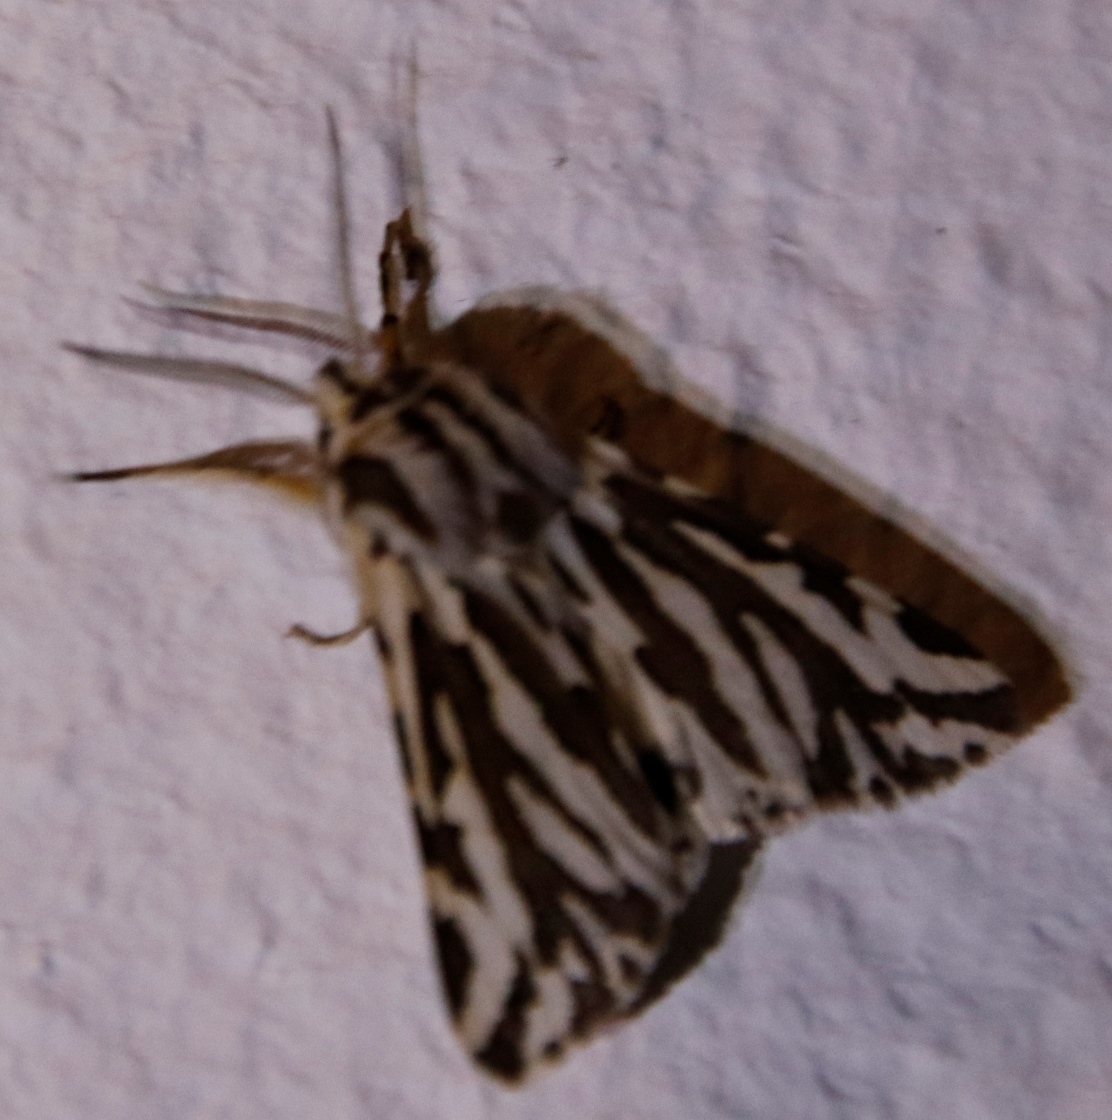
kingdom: Animalia
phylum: Arthropoda
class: Insecta
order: Lepidoptera
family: Erebidae
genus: Paralacydes
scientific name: Paralacydes vocula
